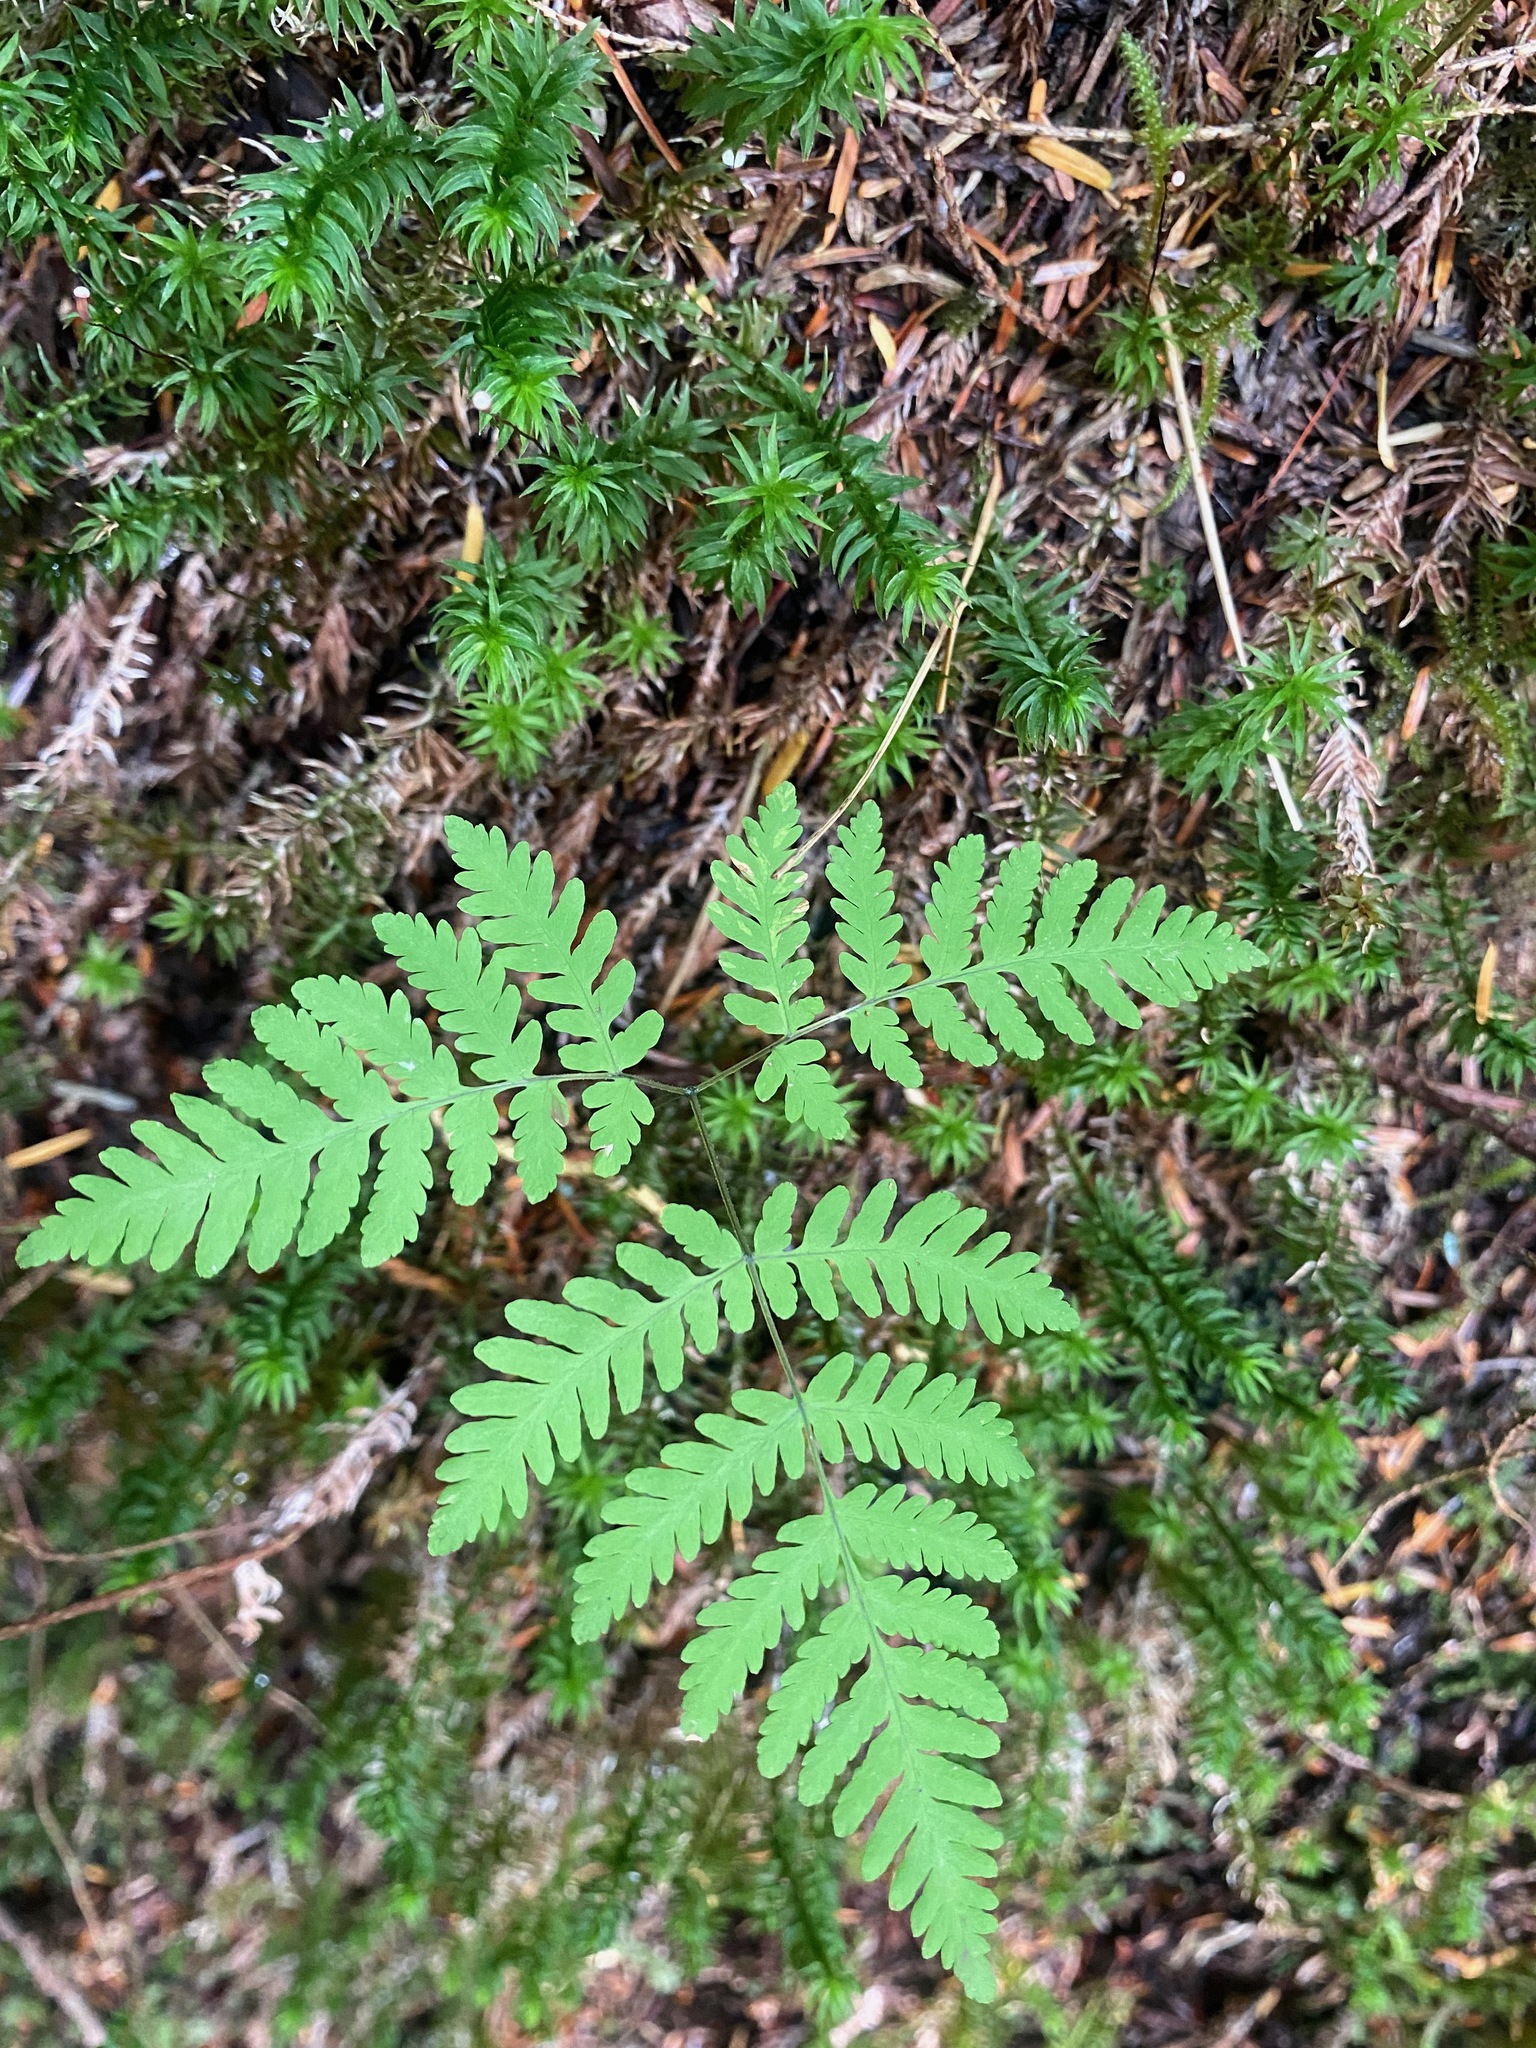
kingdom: Plantae
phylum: Tracheophyta
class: Polypodiopsida
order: Polypodiales
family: Cystopteridaceae
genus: Gymnocarpium
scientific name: Gymnocarpium dryopteris
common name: Oak fern
